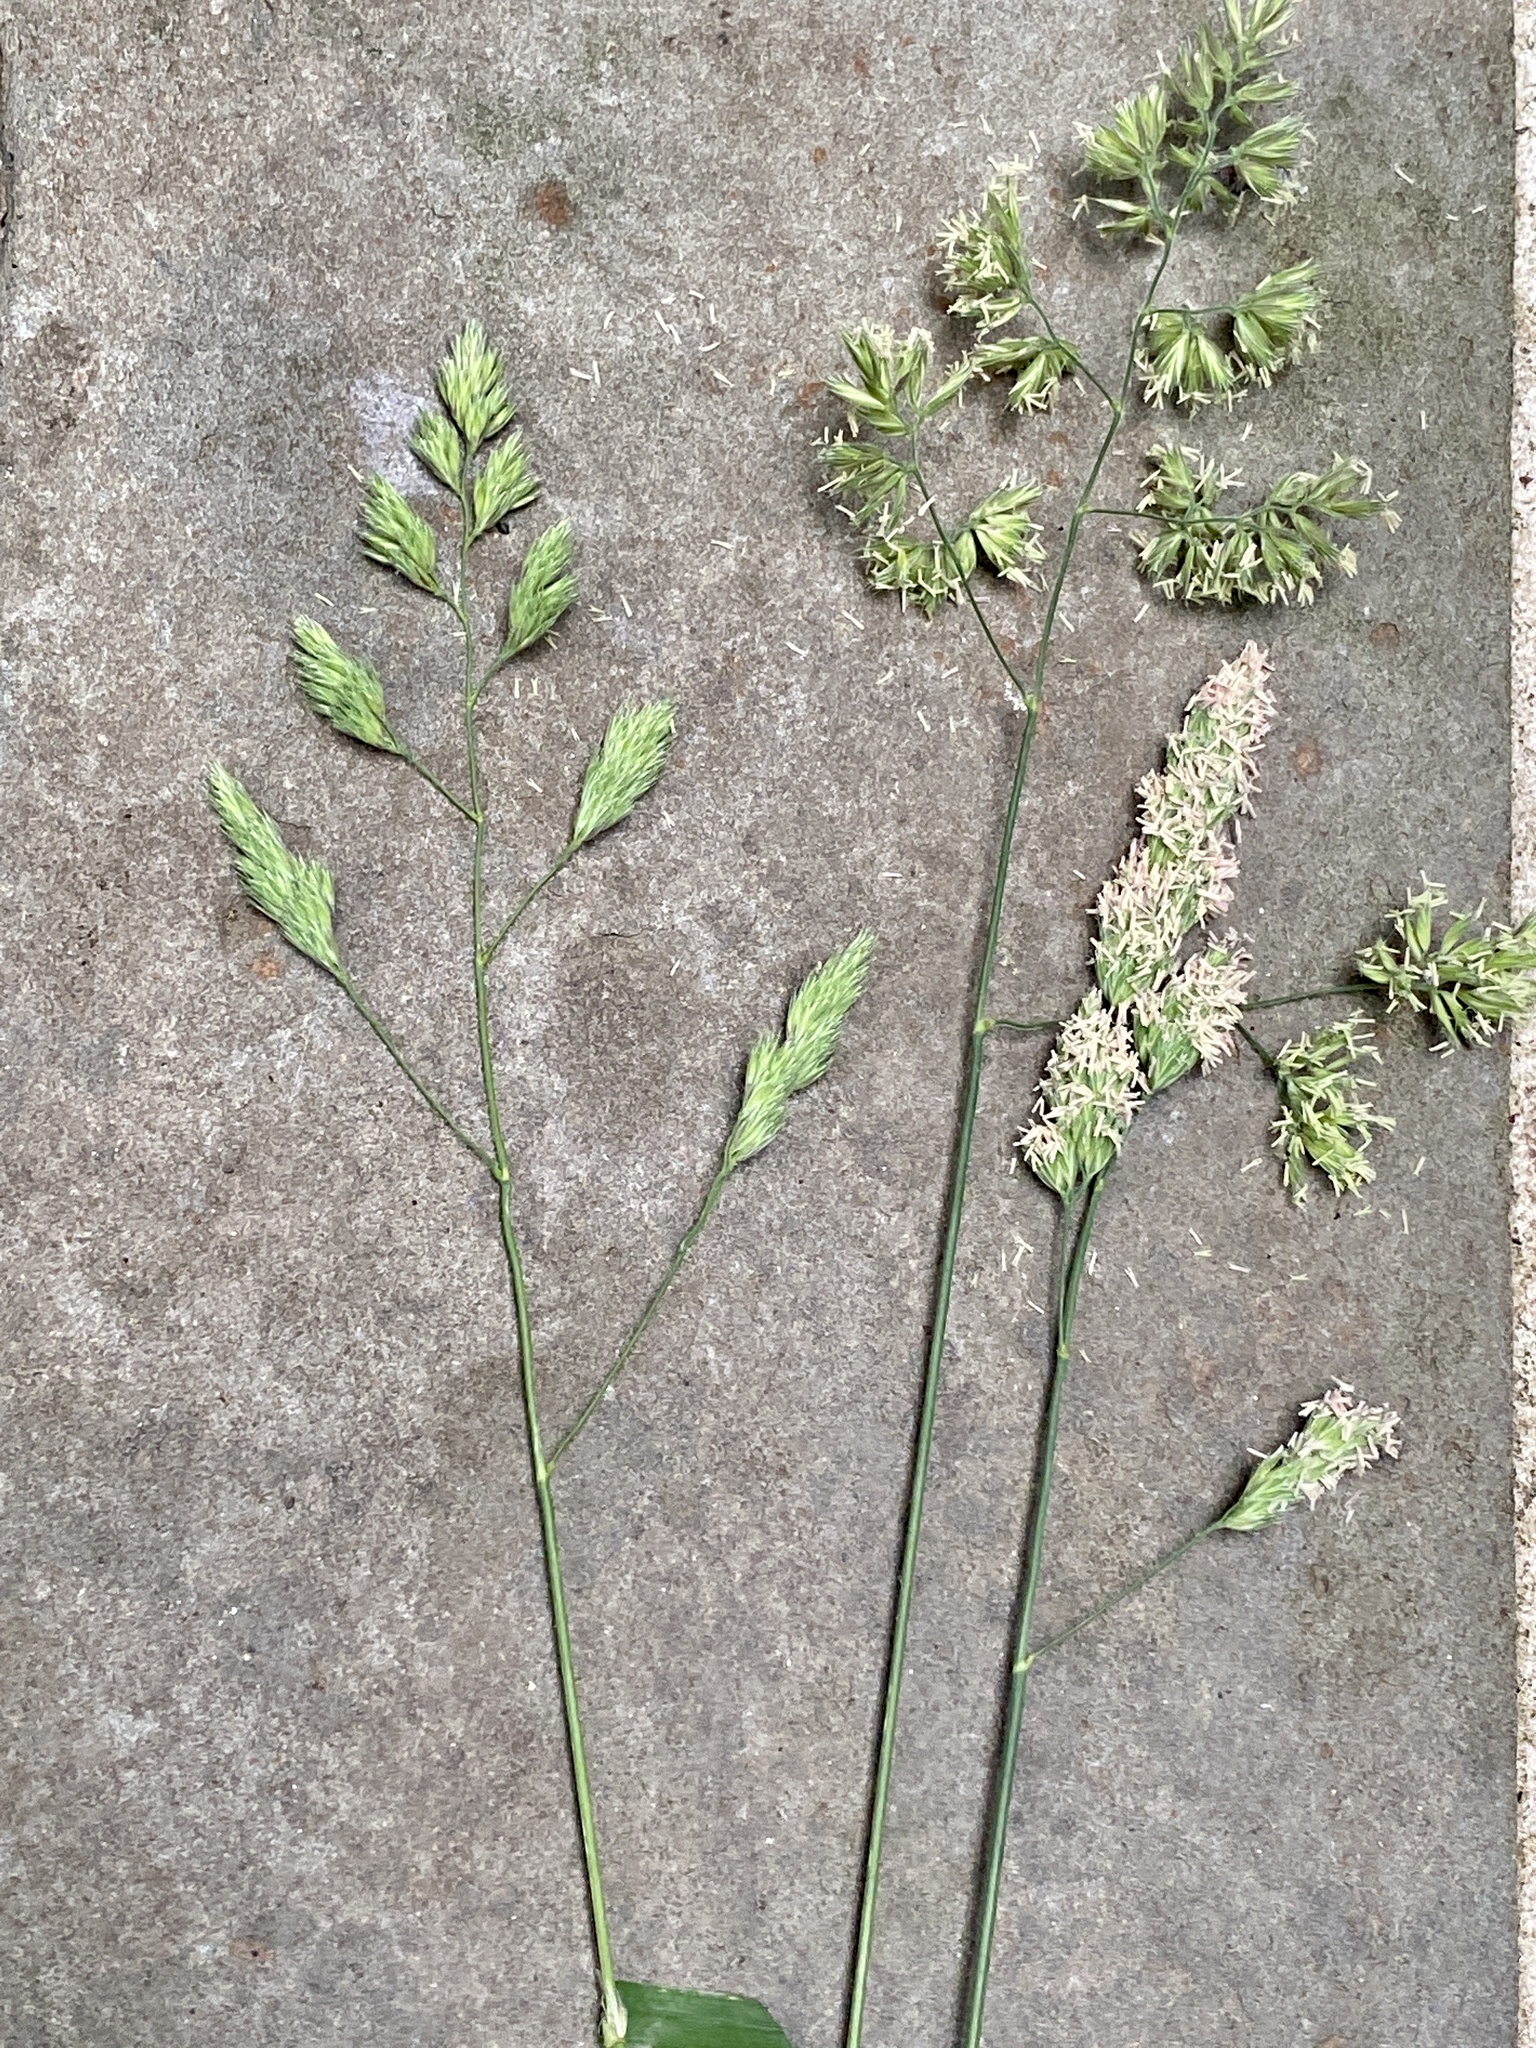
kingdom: Plantae
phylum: Tracheophyta
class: Liliopsida
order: Poales
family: Poaceae
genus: Dactylis
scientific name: Dactylis glomerata
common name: Orchardgrass
